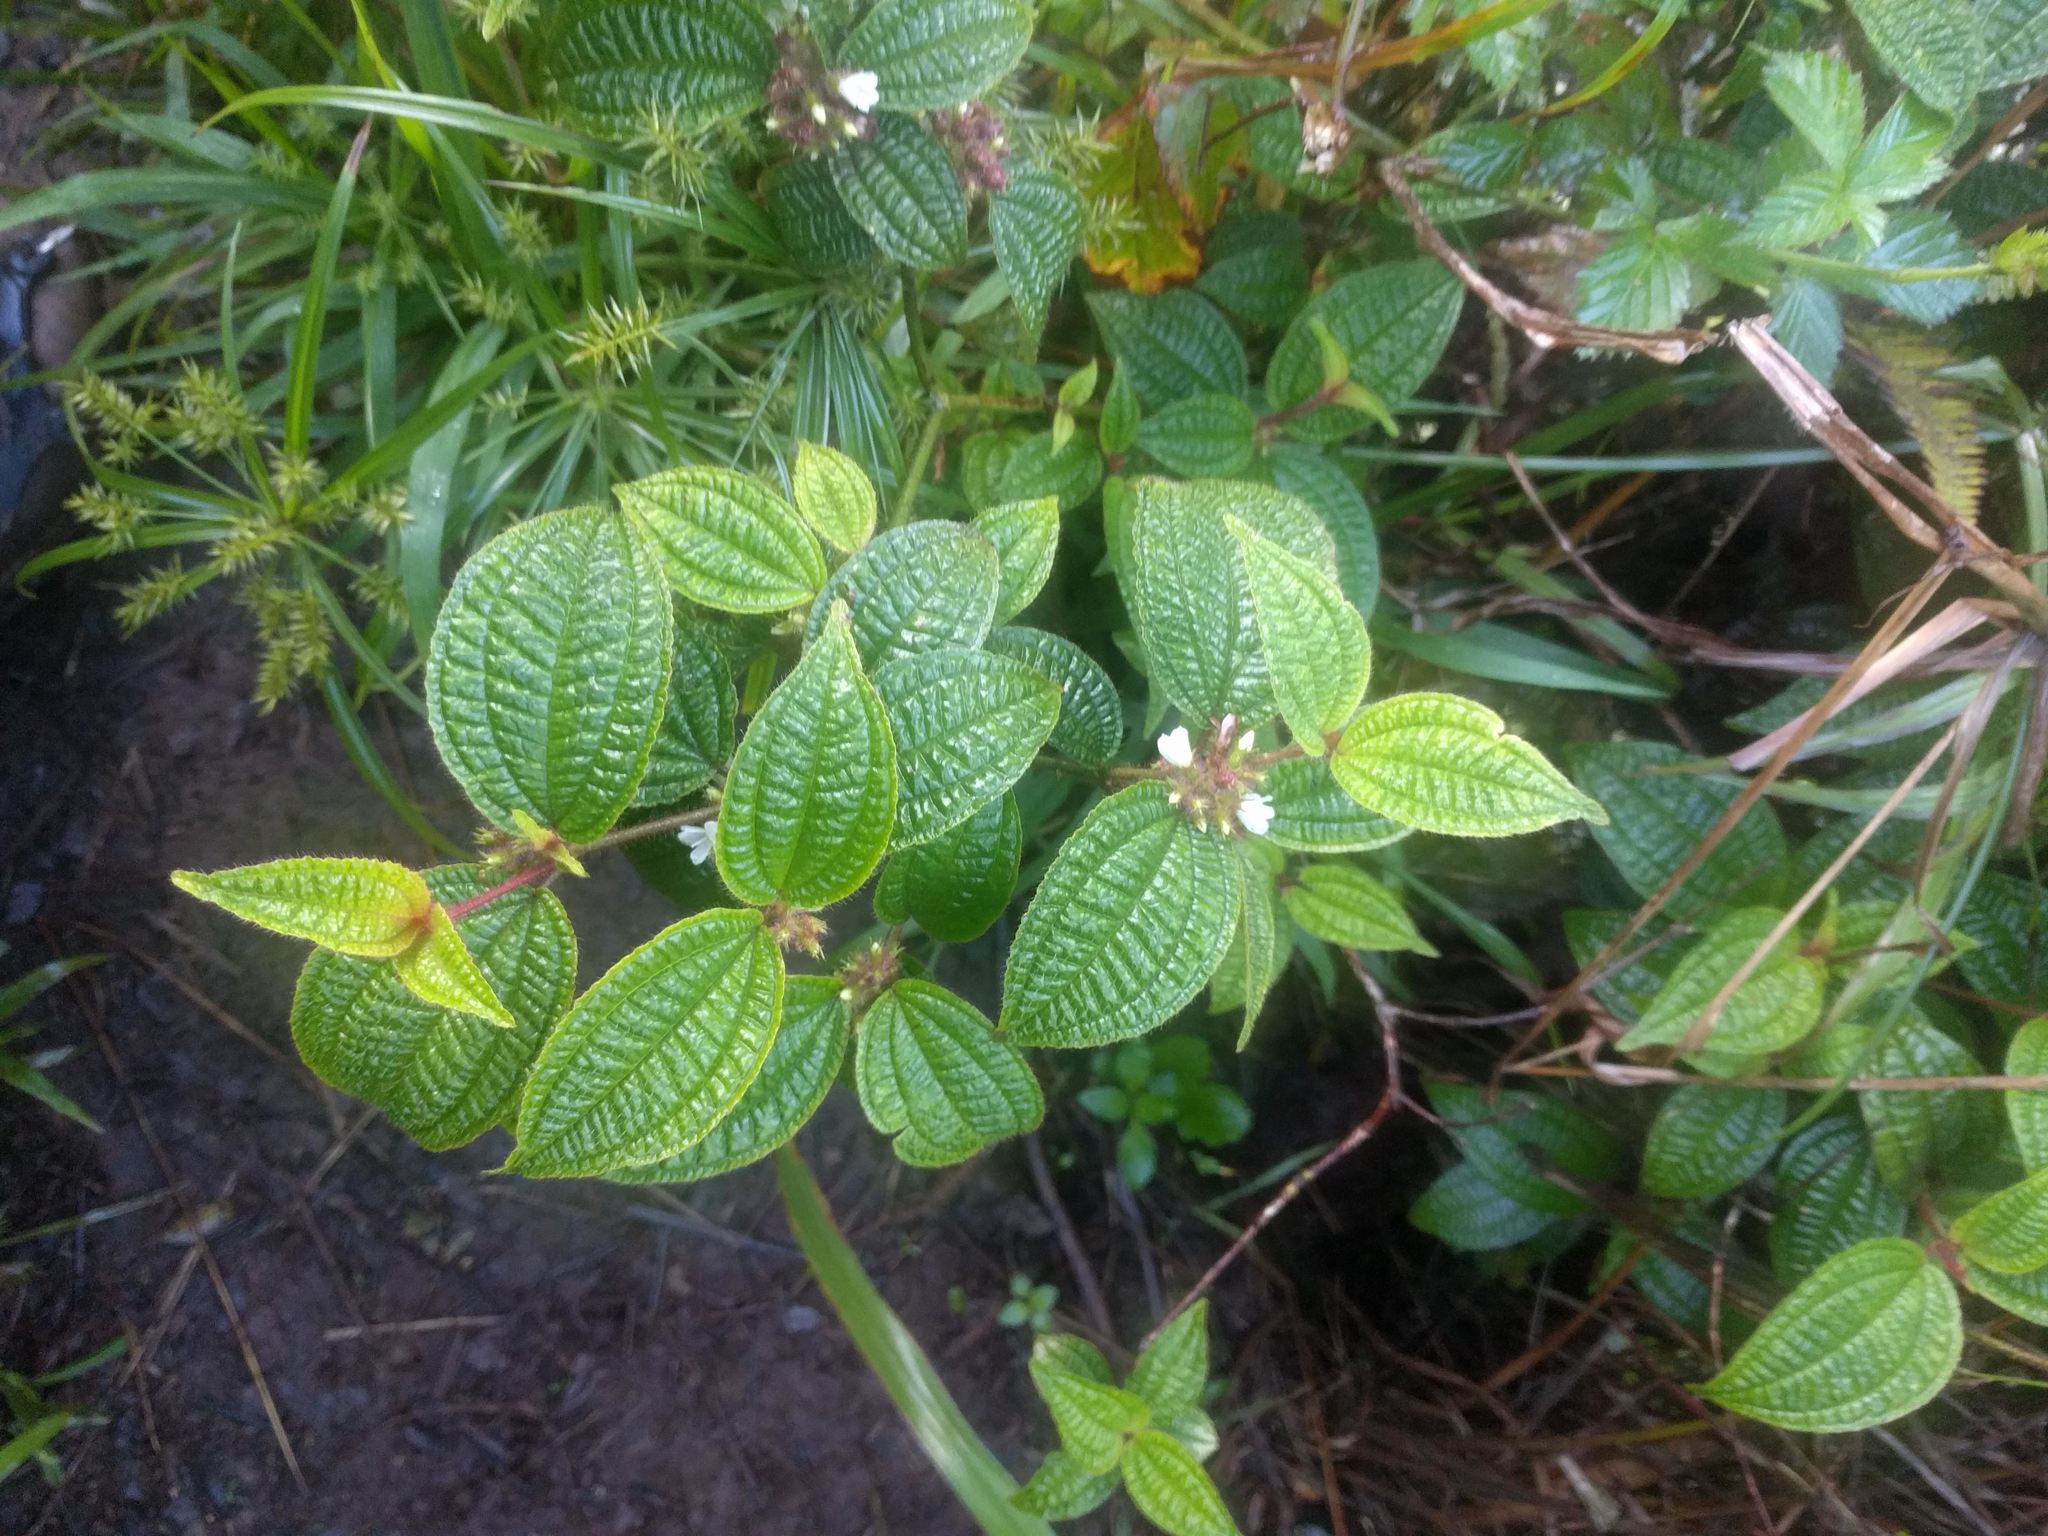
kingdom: Plantae
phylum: Tracheophyta
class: Magnoliopsida
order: Myrtales
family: Melastomataceae
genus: Miconia
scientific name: Miconia crenata
